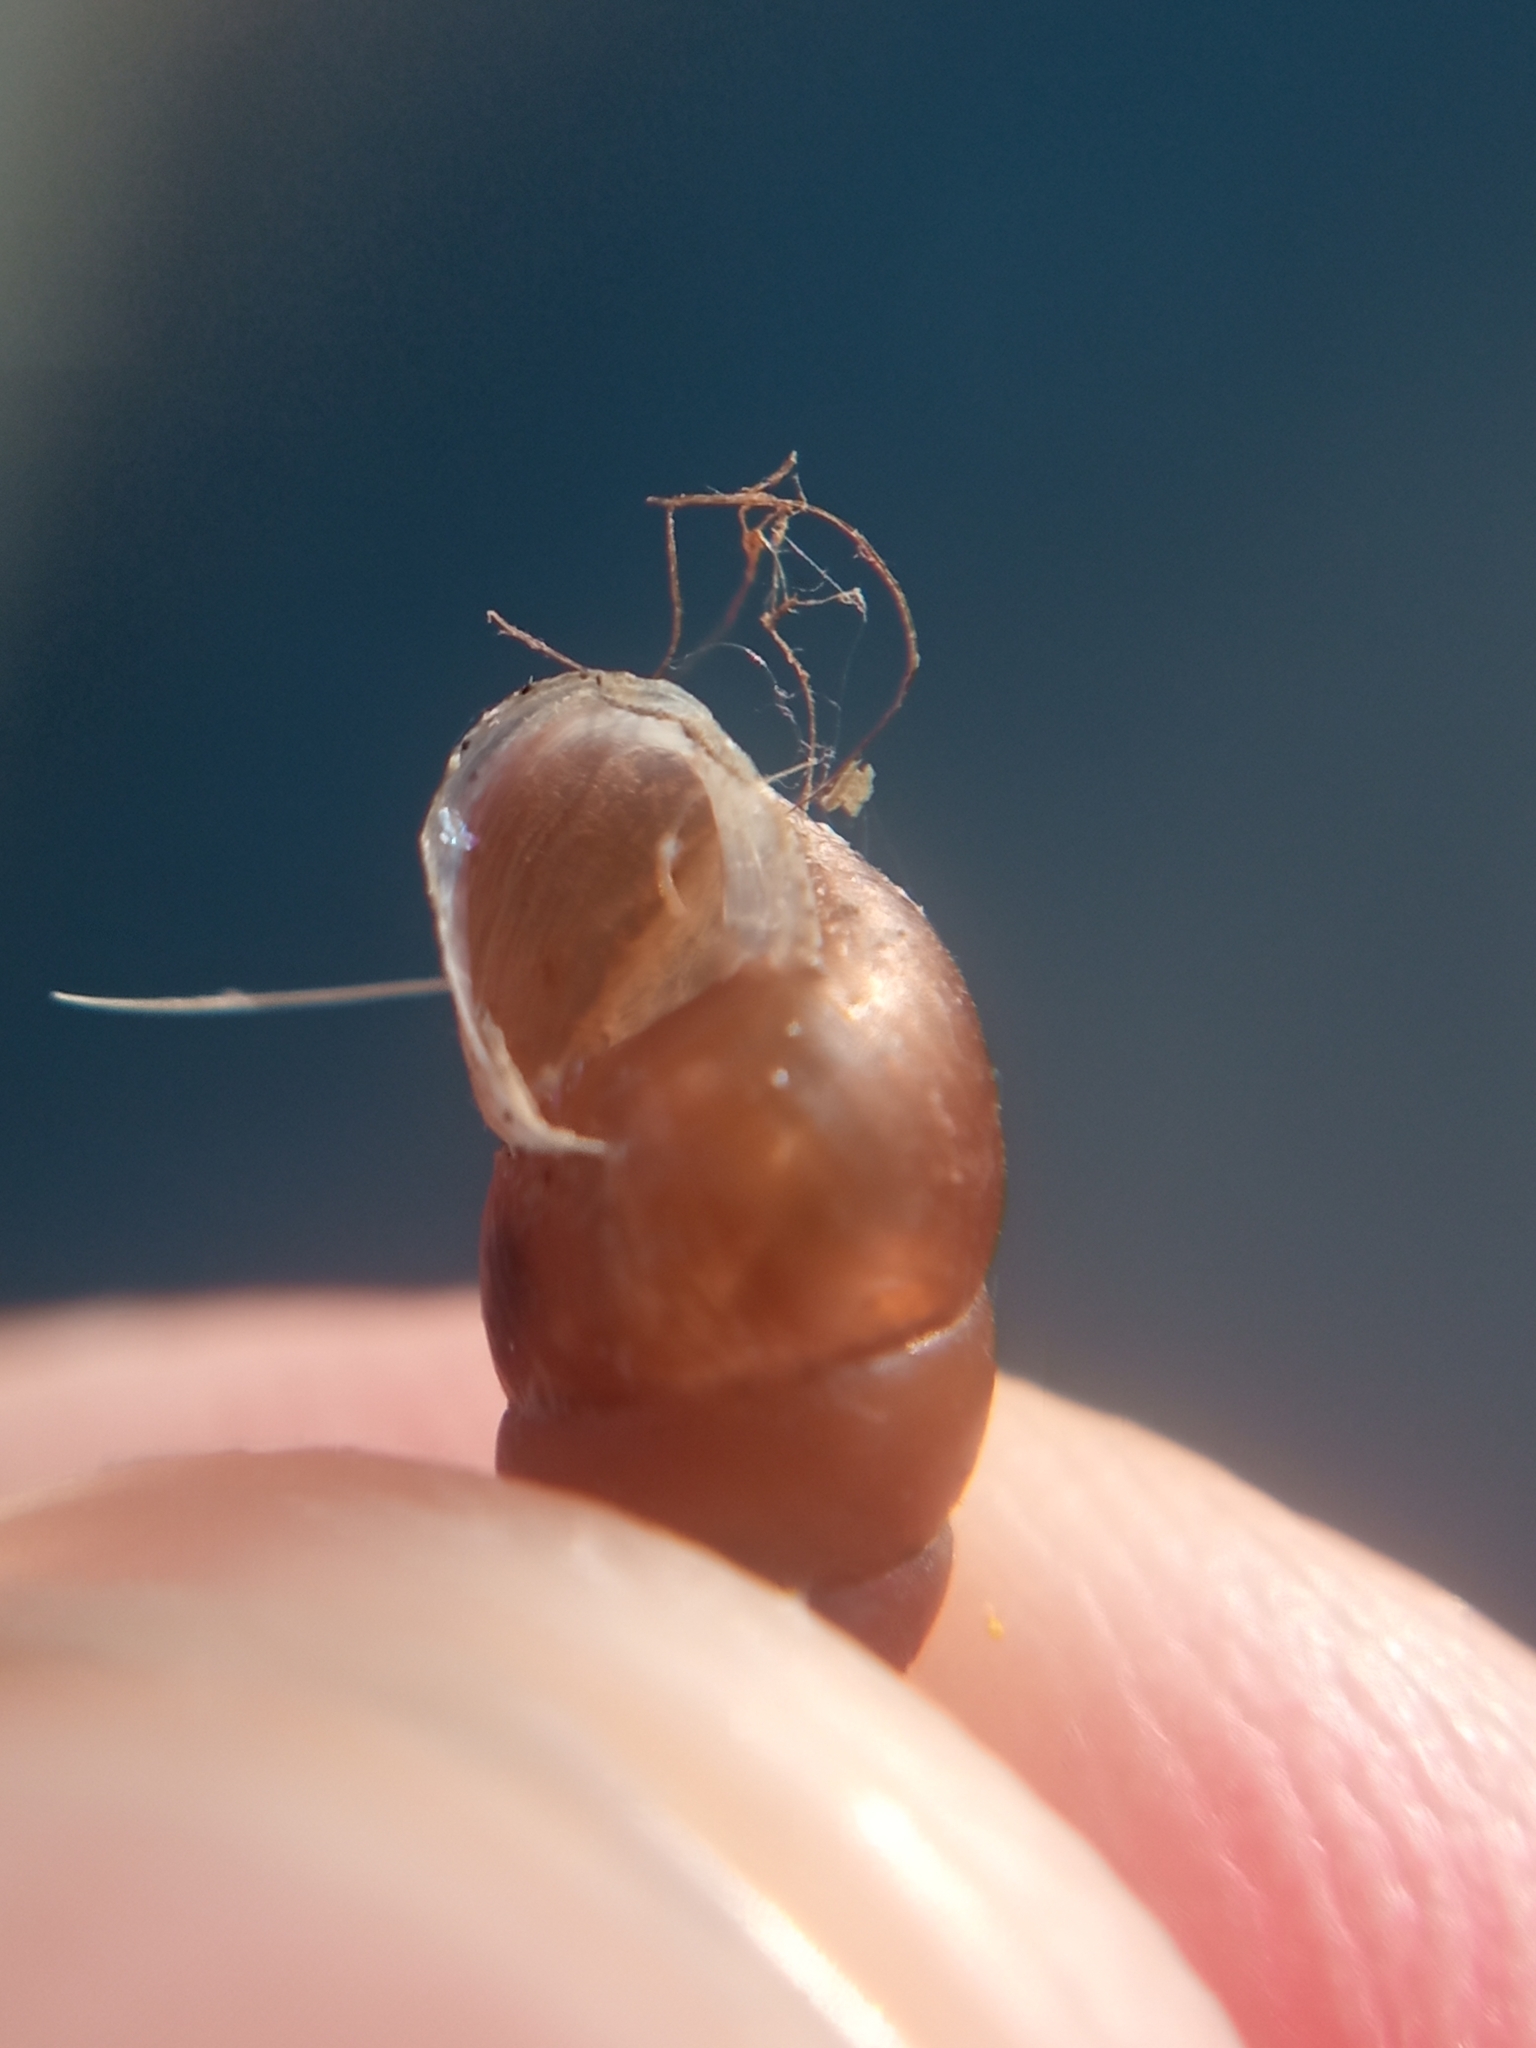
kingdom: Animalia
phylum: Mollusca
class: Gastropoda
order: Stylommatophora
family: Enidae
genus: Merdigera
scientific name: Merdigera obscura
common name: Lesser bulin
